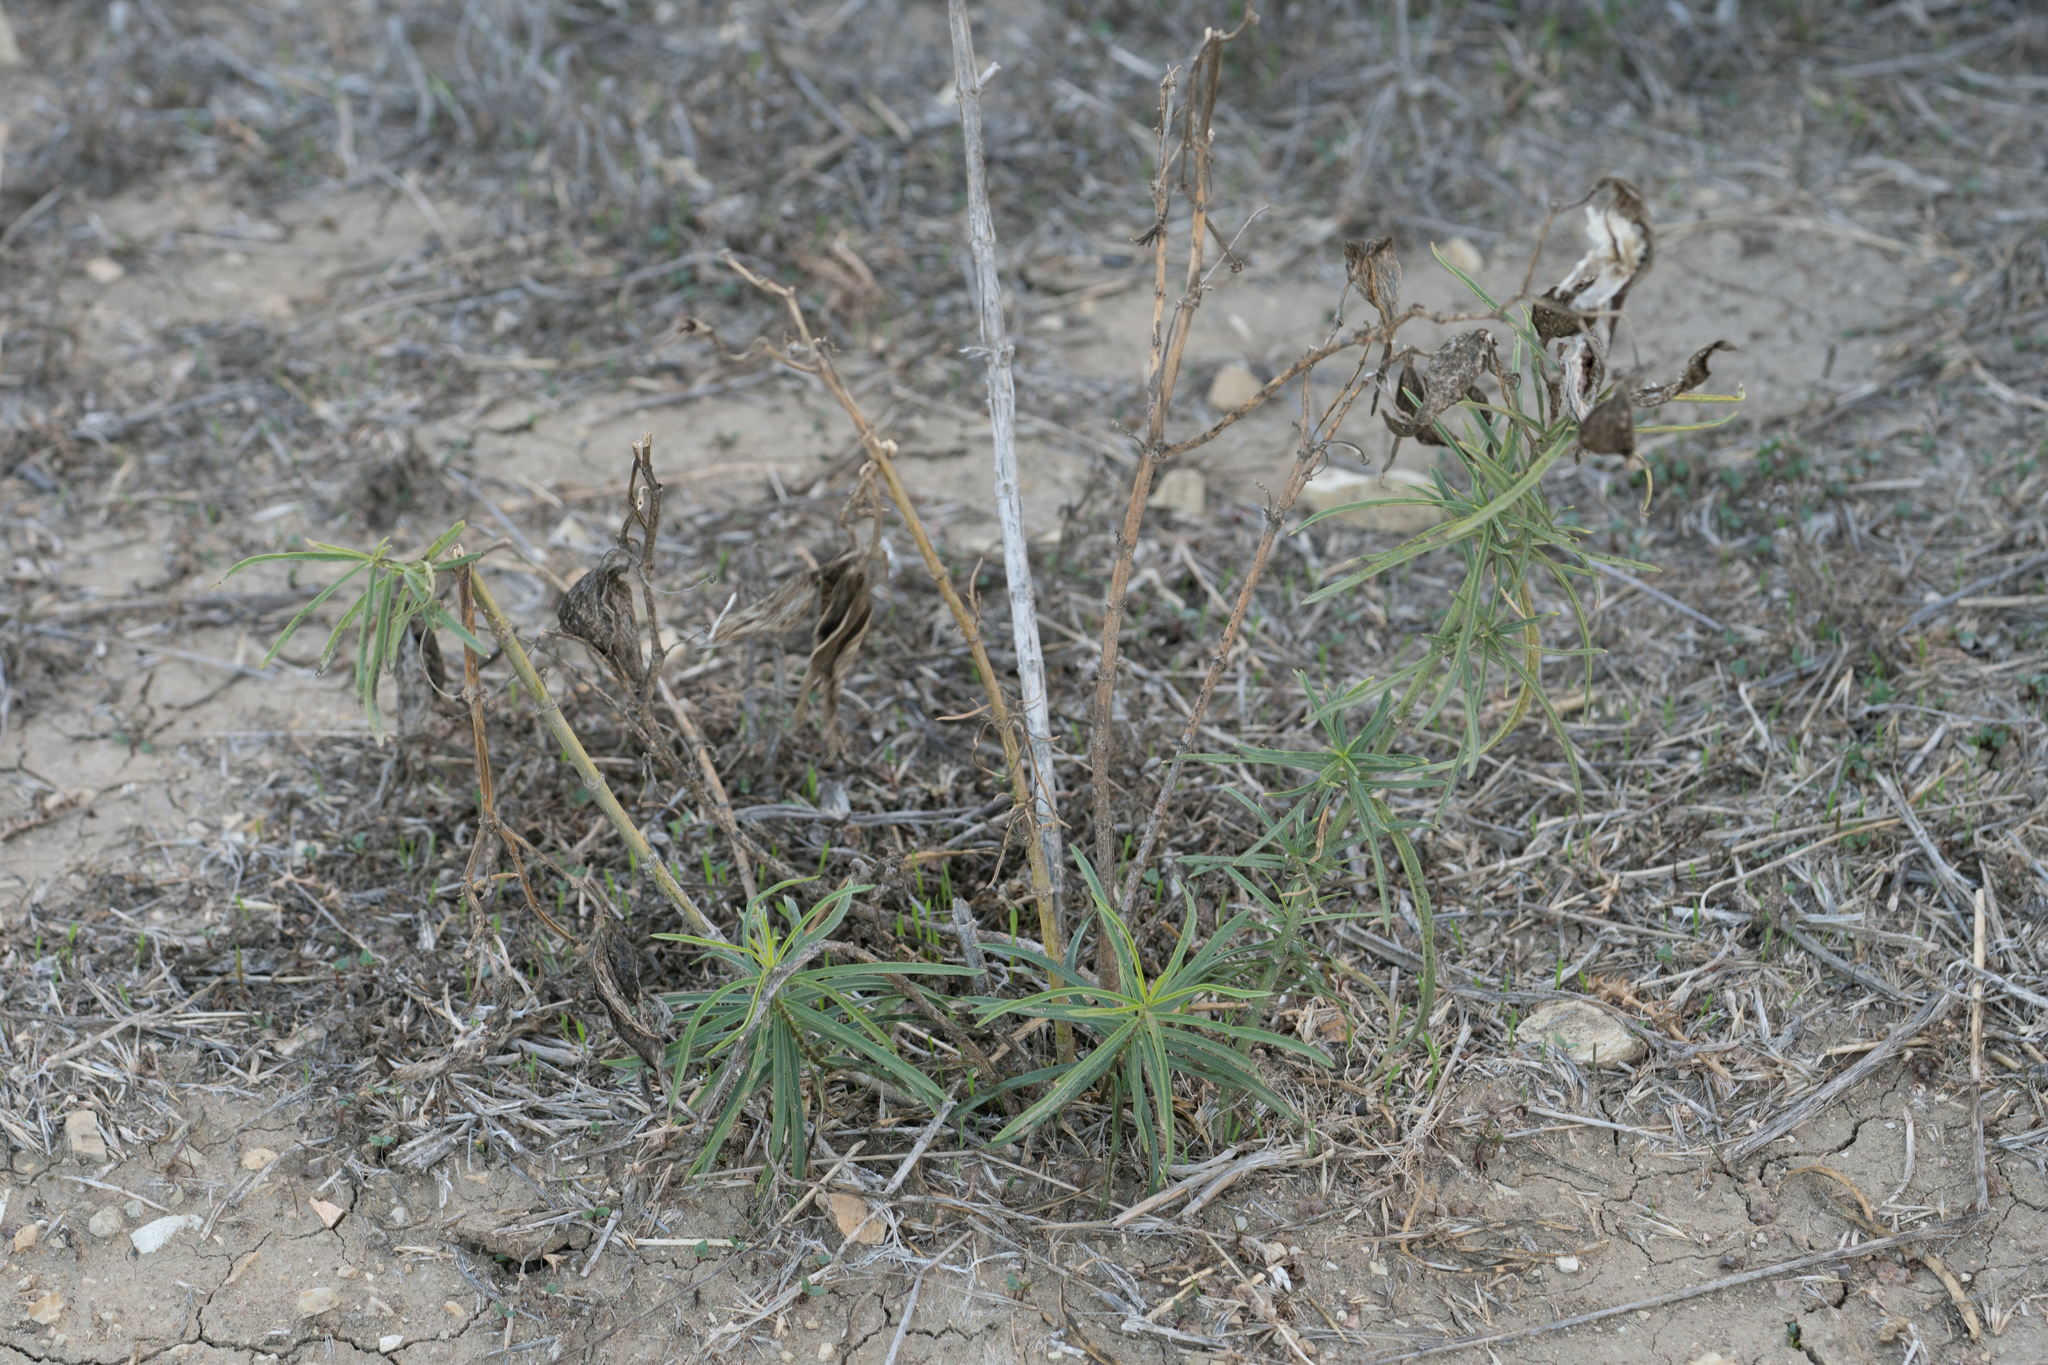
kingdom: Plantae
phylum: Tracheophyta
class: Magnoliopsida
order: Gentianales
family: Apocynaceae
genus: Asclepias
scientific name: Asclepias fascicularis
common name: Mexican milkweed
